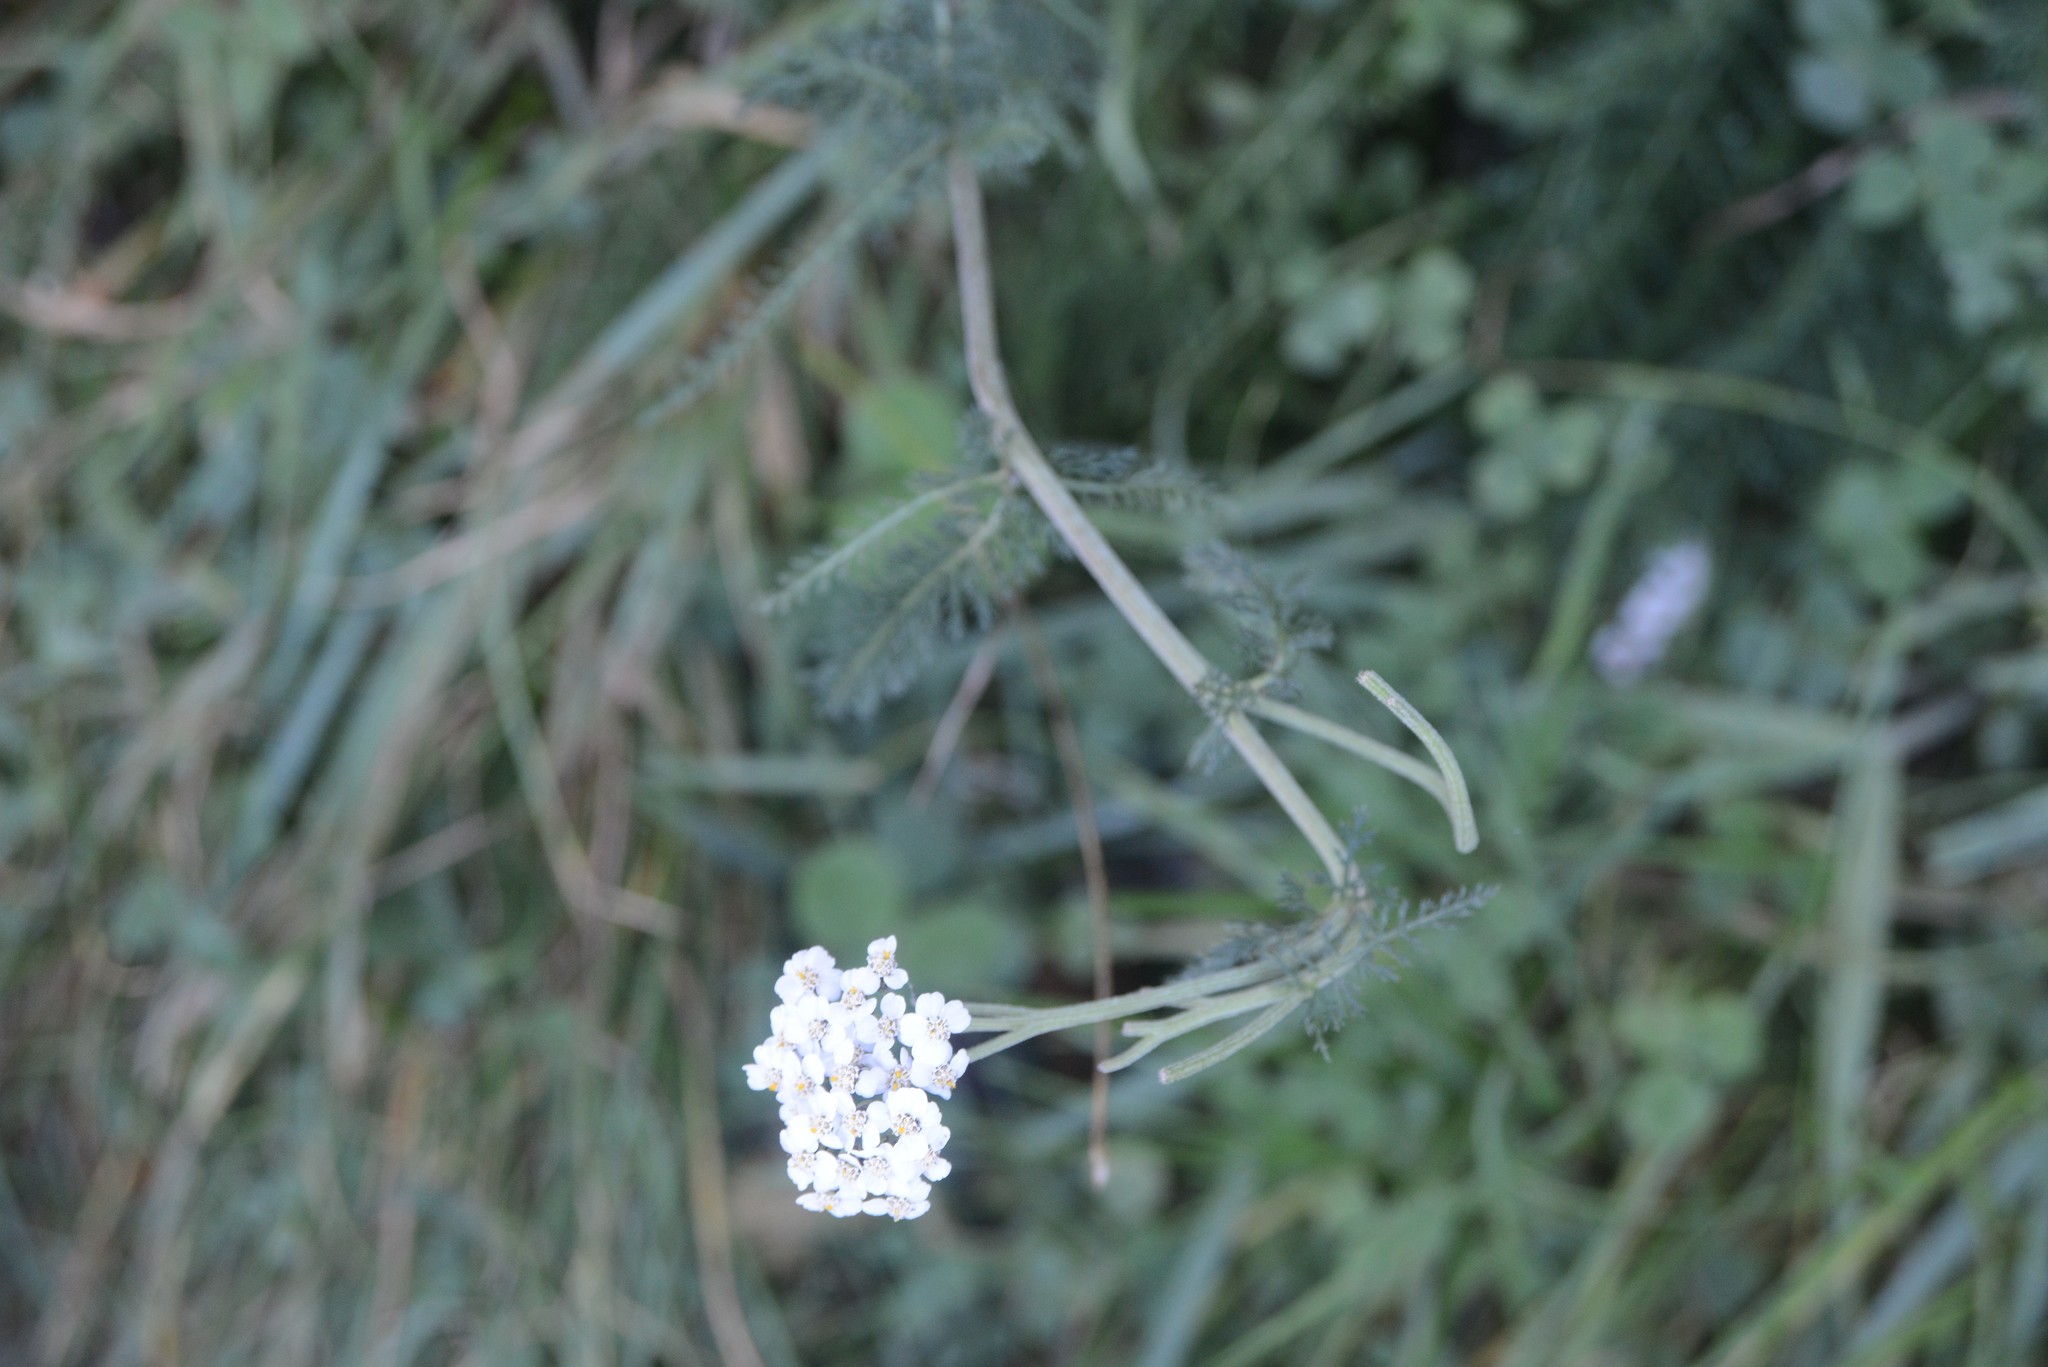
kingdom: Plantae
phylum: Tracheophyta
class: Magnoliopsida
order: Asterales
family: Asteraceae
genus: Achillea
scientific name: Achillea millefolium
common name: Yarrow
